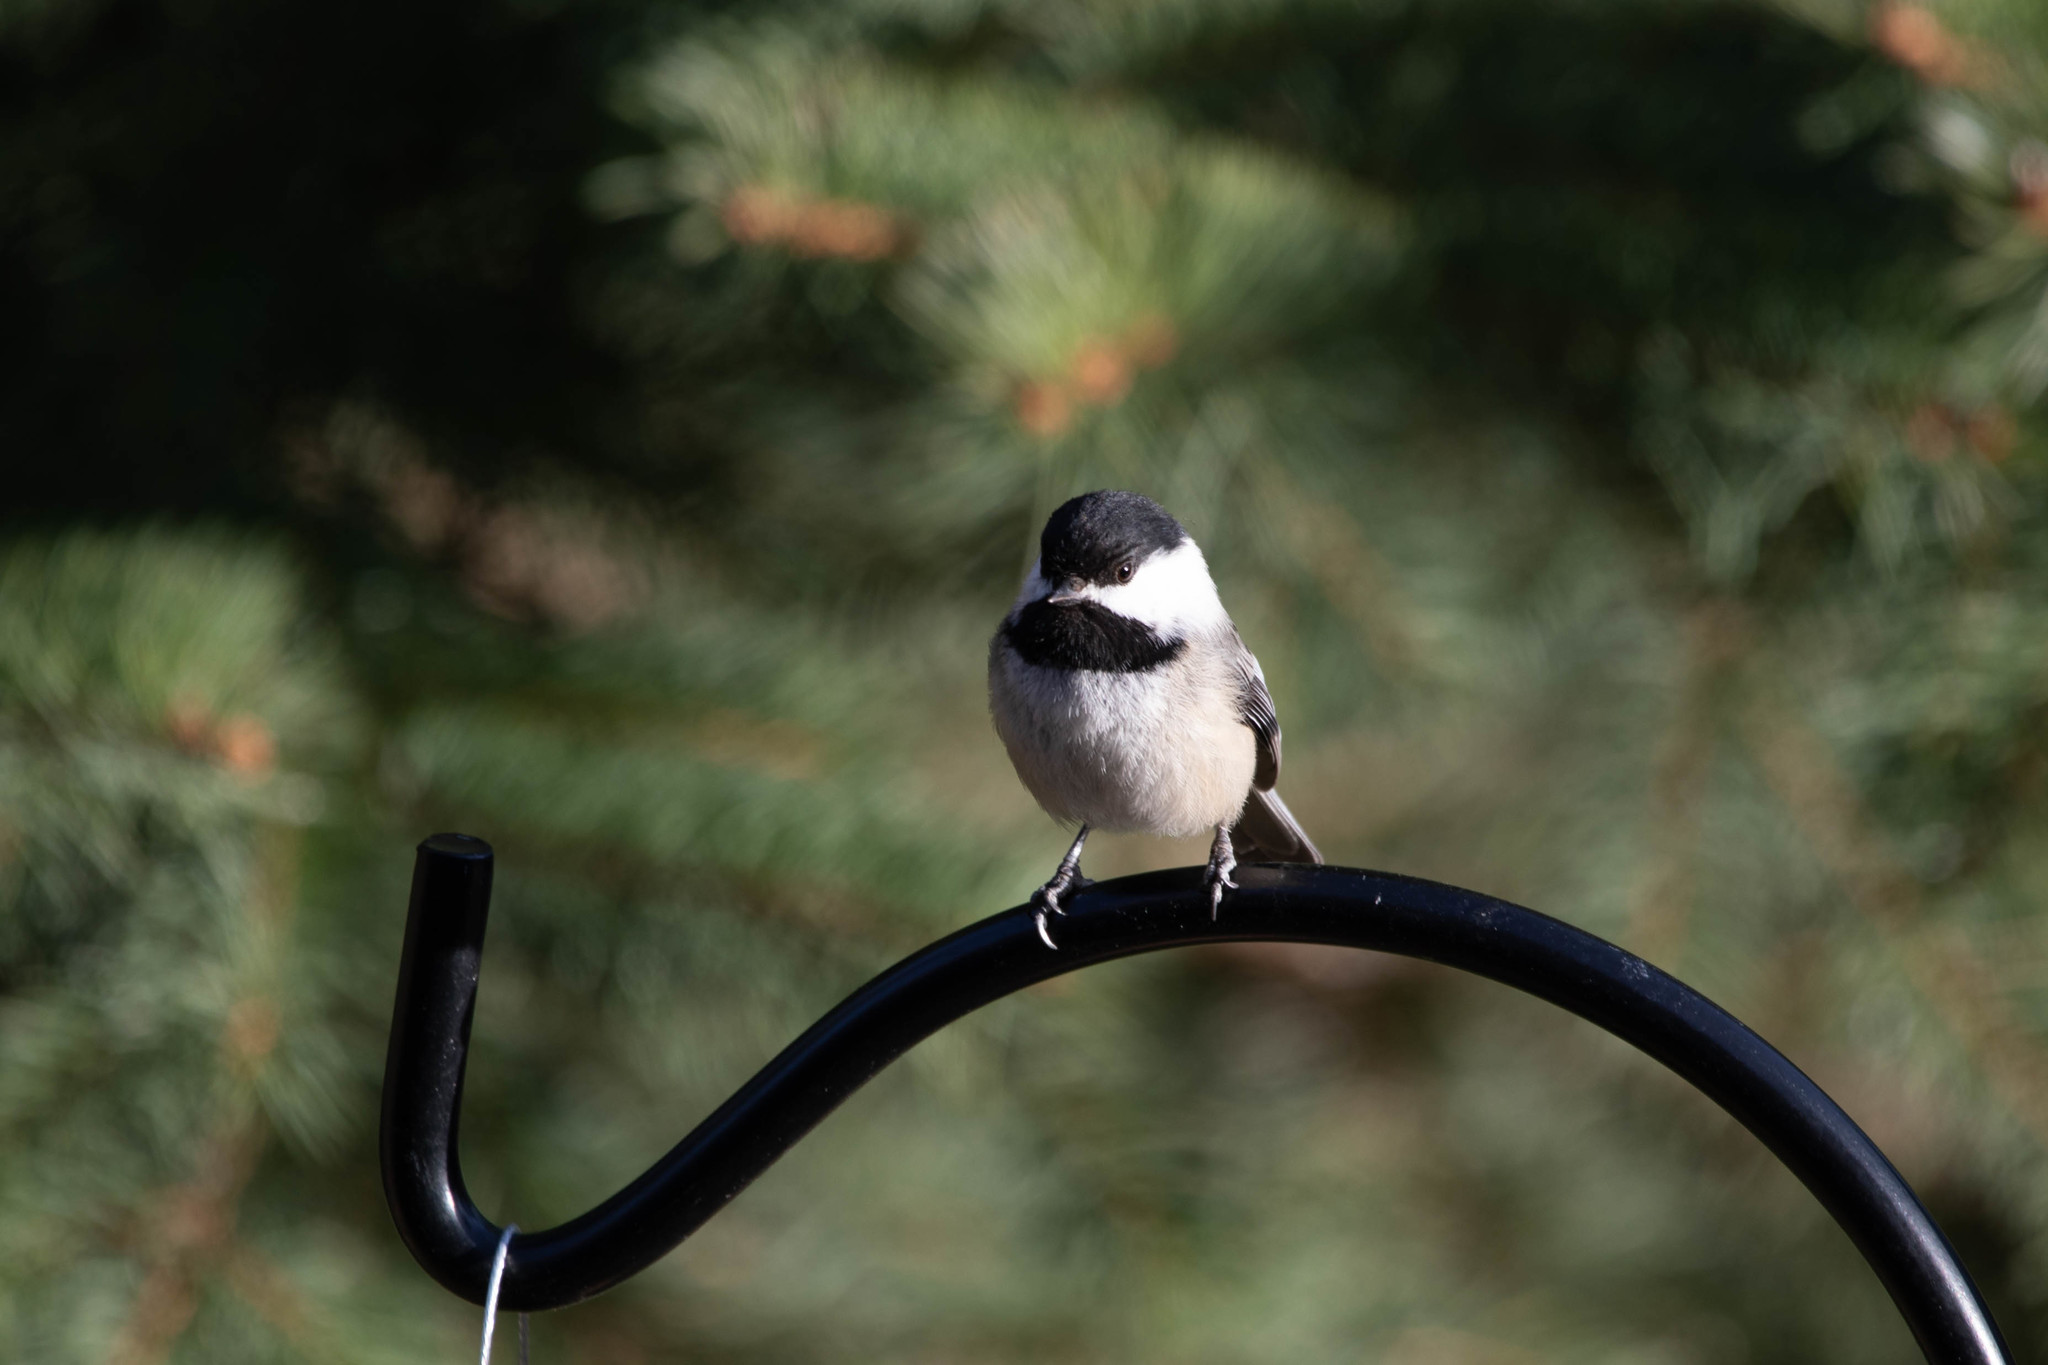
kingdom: Animalia
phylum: Chordata
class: Aves
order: Passeriformes
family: Paridae
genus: Poecile
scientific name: Poecile atricapillus
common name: Black-capped chickadee
